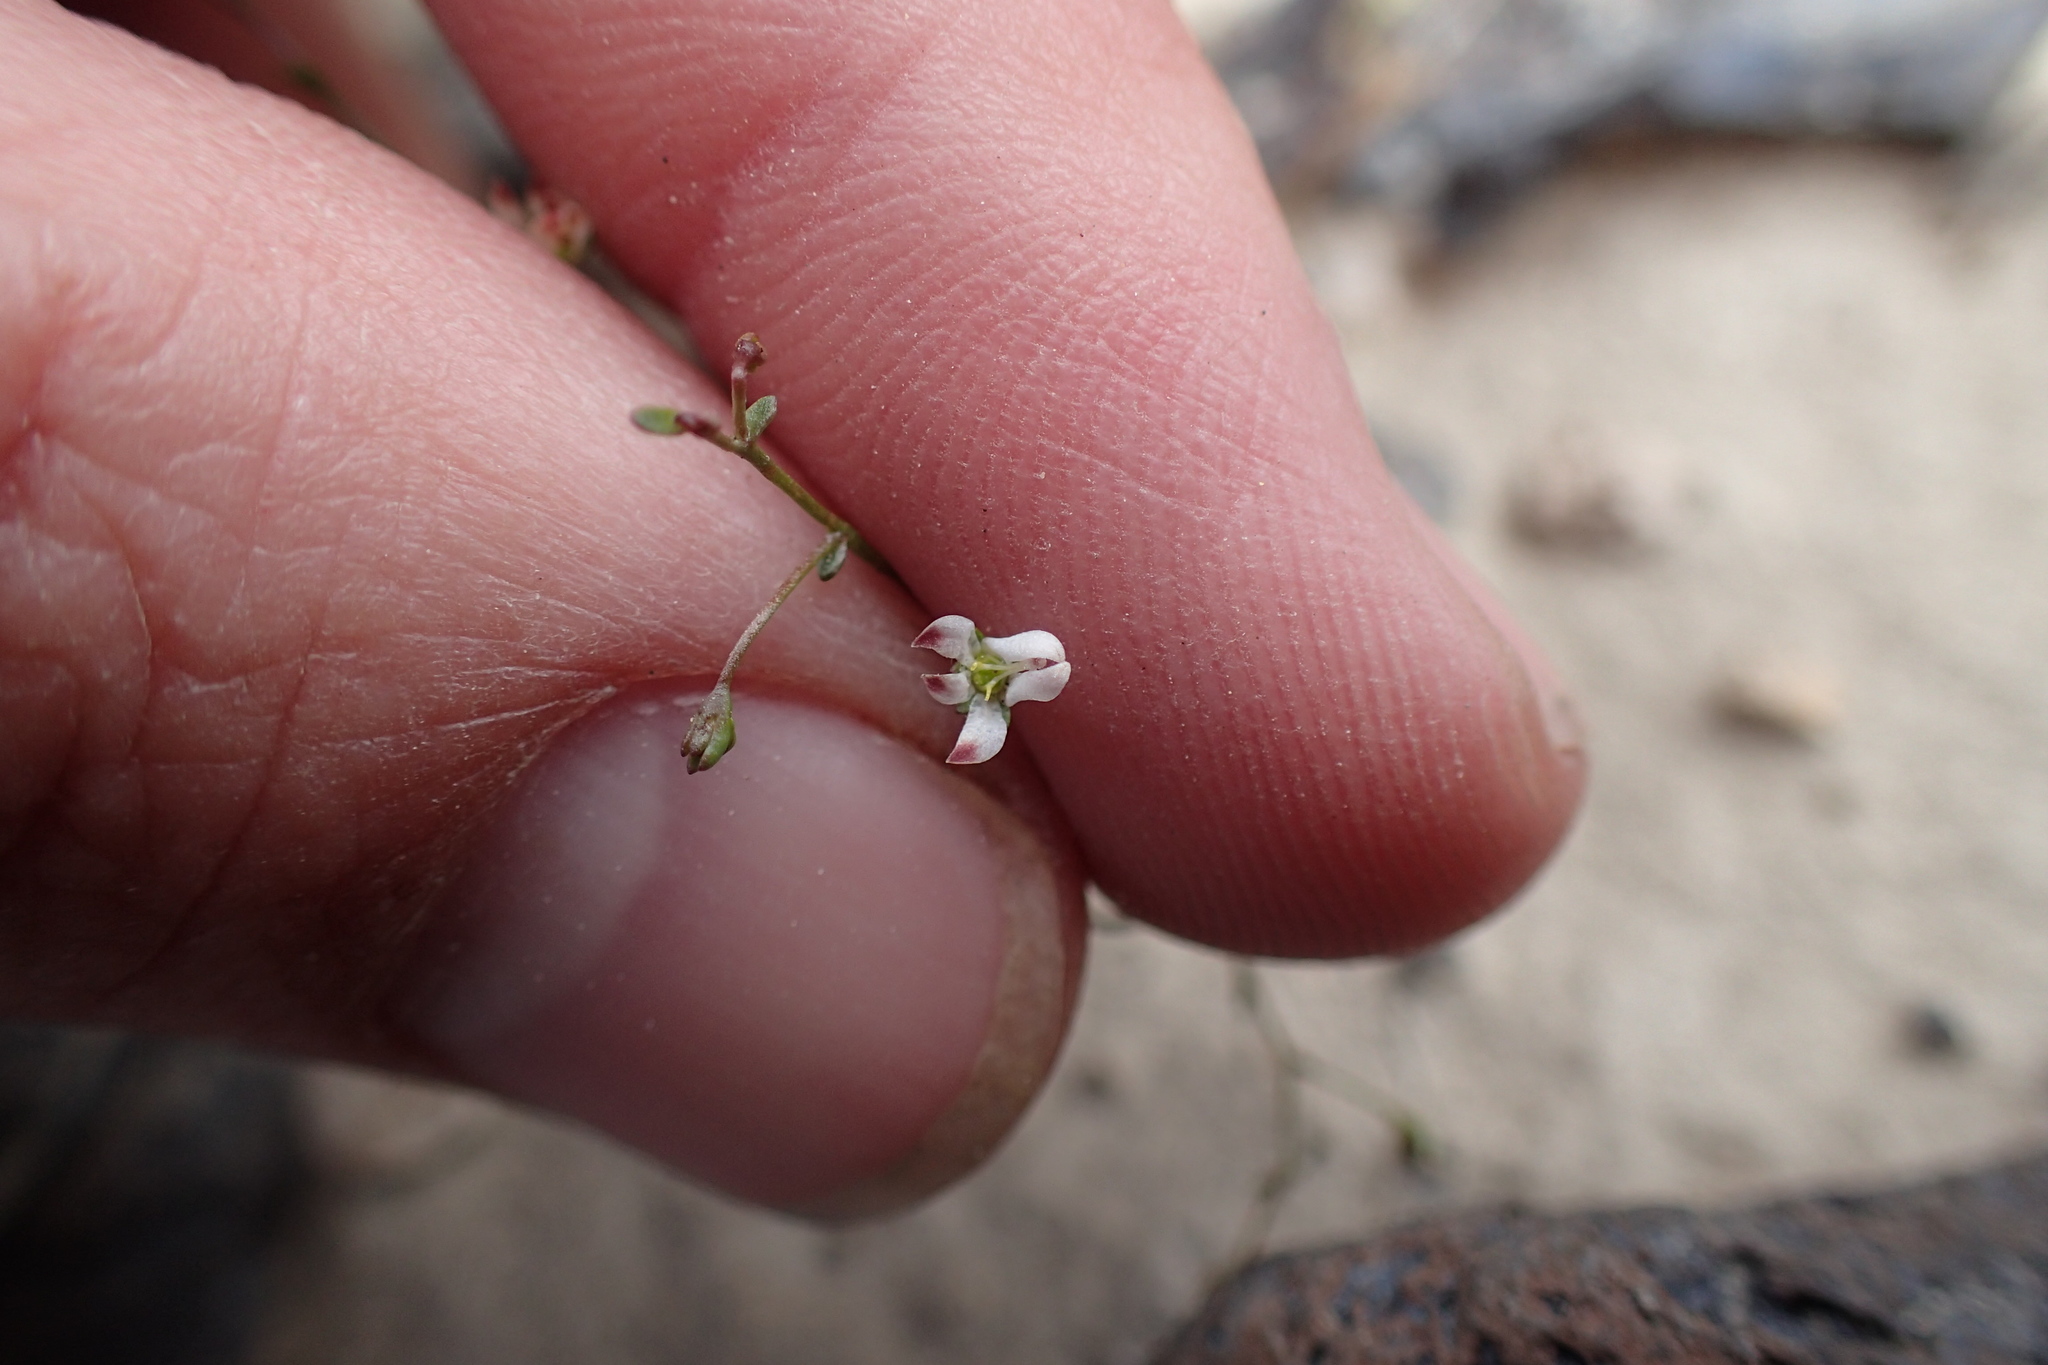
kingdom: Plantae
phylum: Tracheophyta
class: Magnoliopsida
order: Asterales
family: Campanulaceae
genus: Nemacladus
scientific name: Nemacladus orientalis
